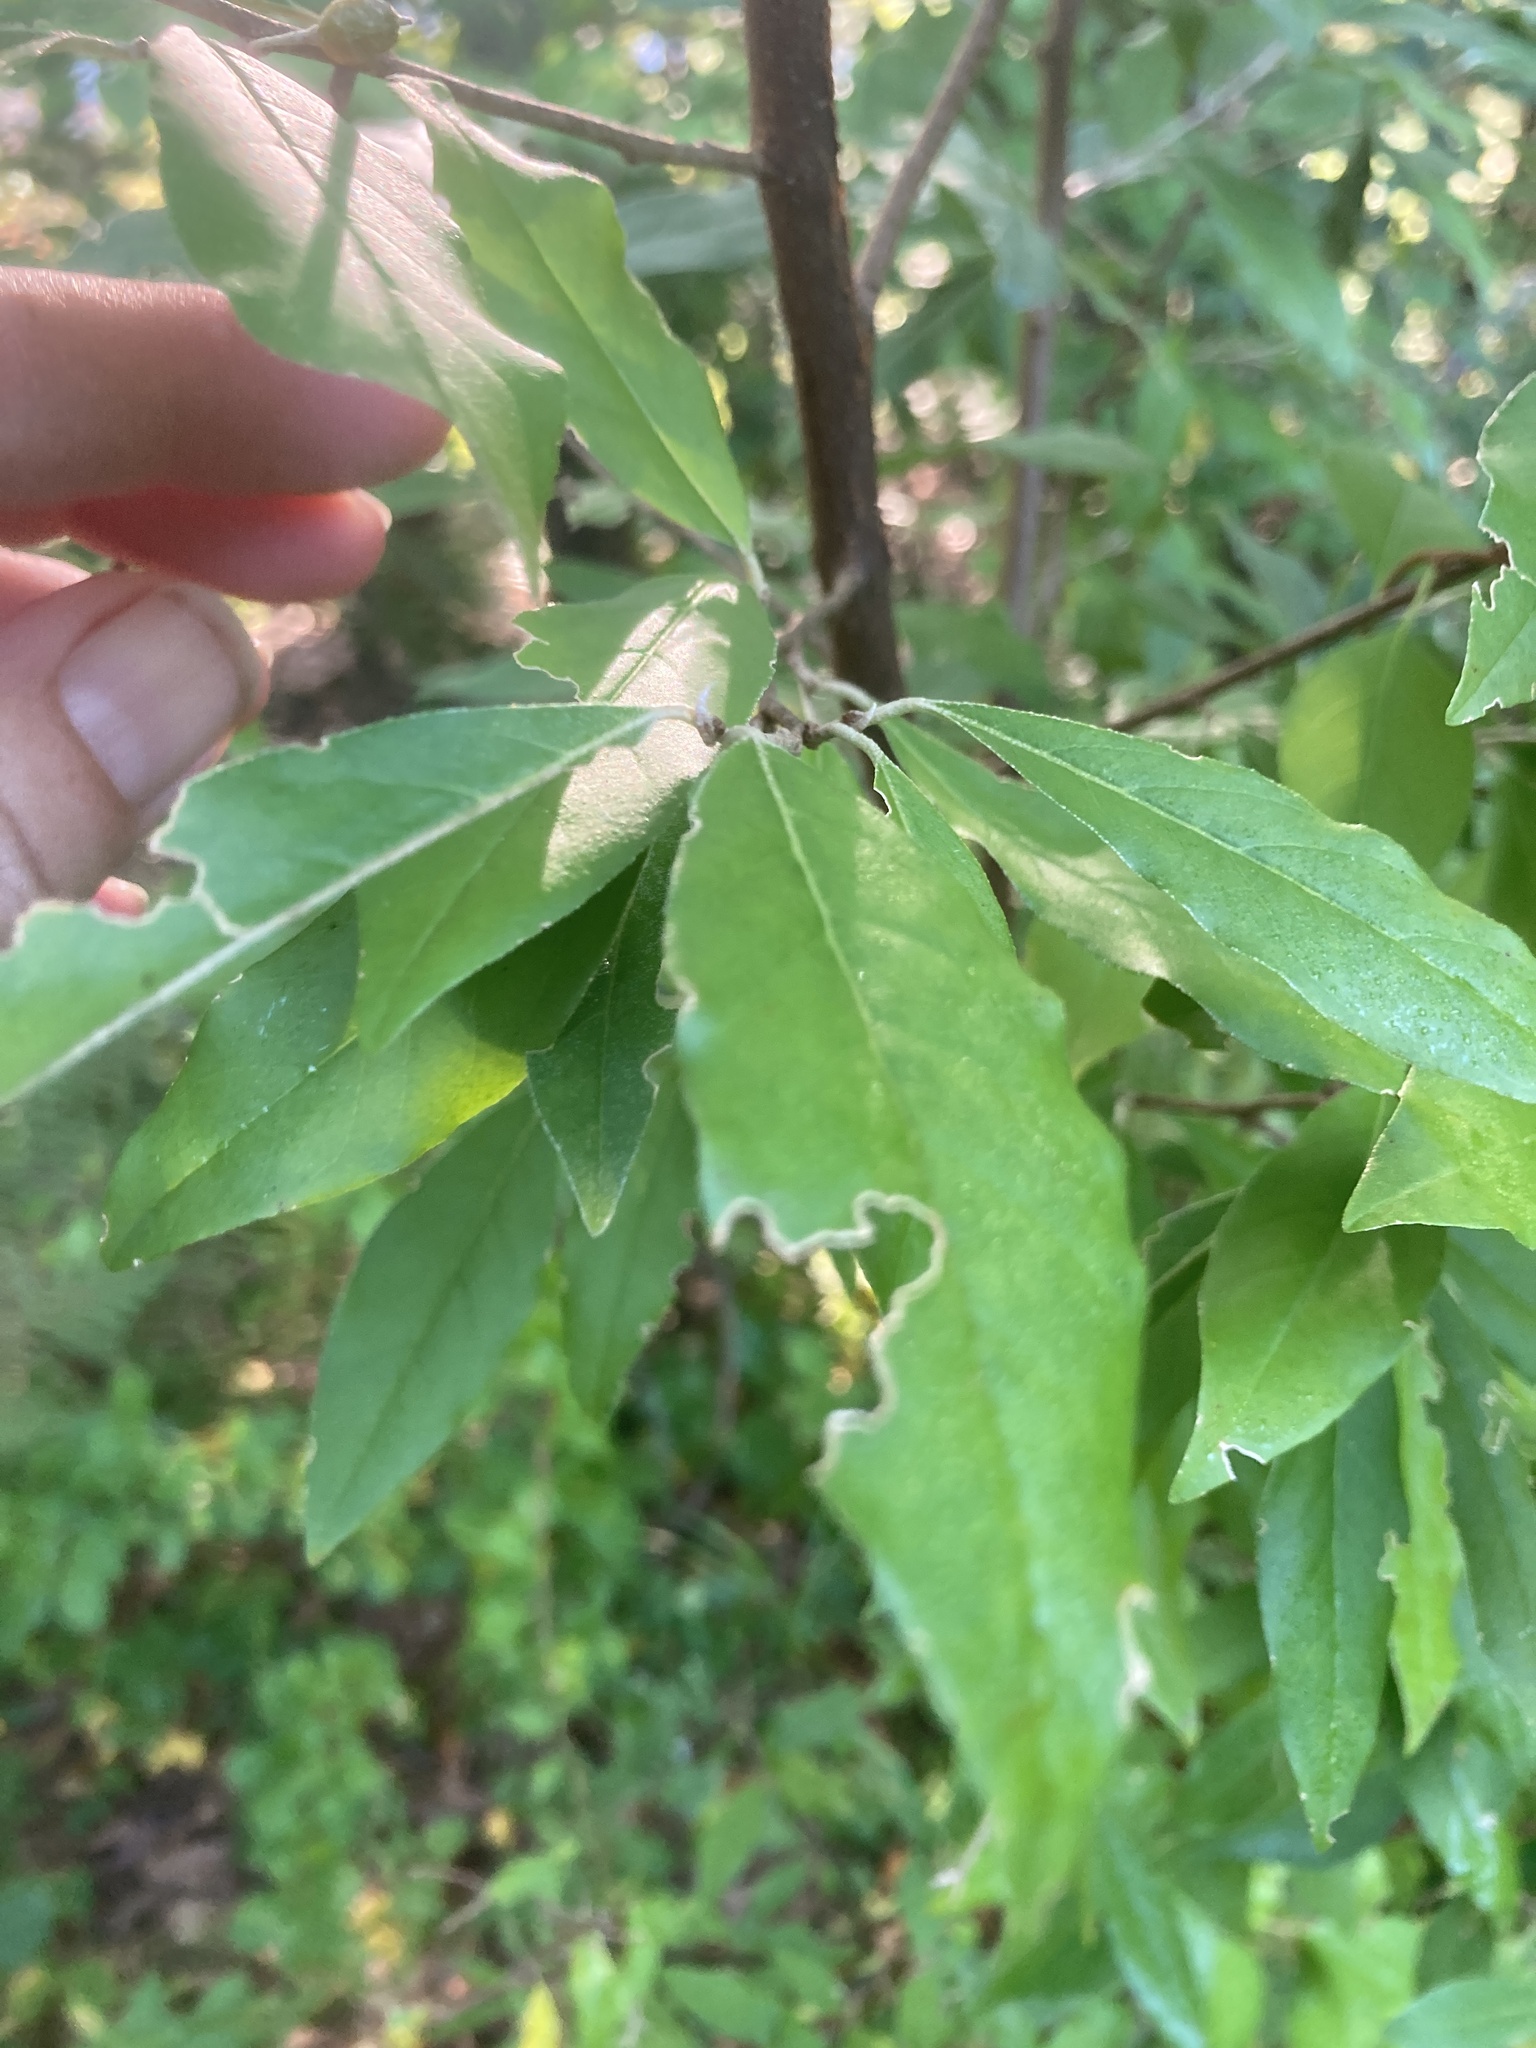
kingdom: Plantae
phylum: Tracheophyta
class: Magnoliopsida
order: Rosales
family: Elaeagnaceae
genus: Elaeagnus
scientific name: Elaeagnus umbellata
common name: Autumn olive
